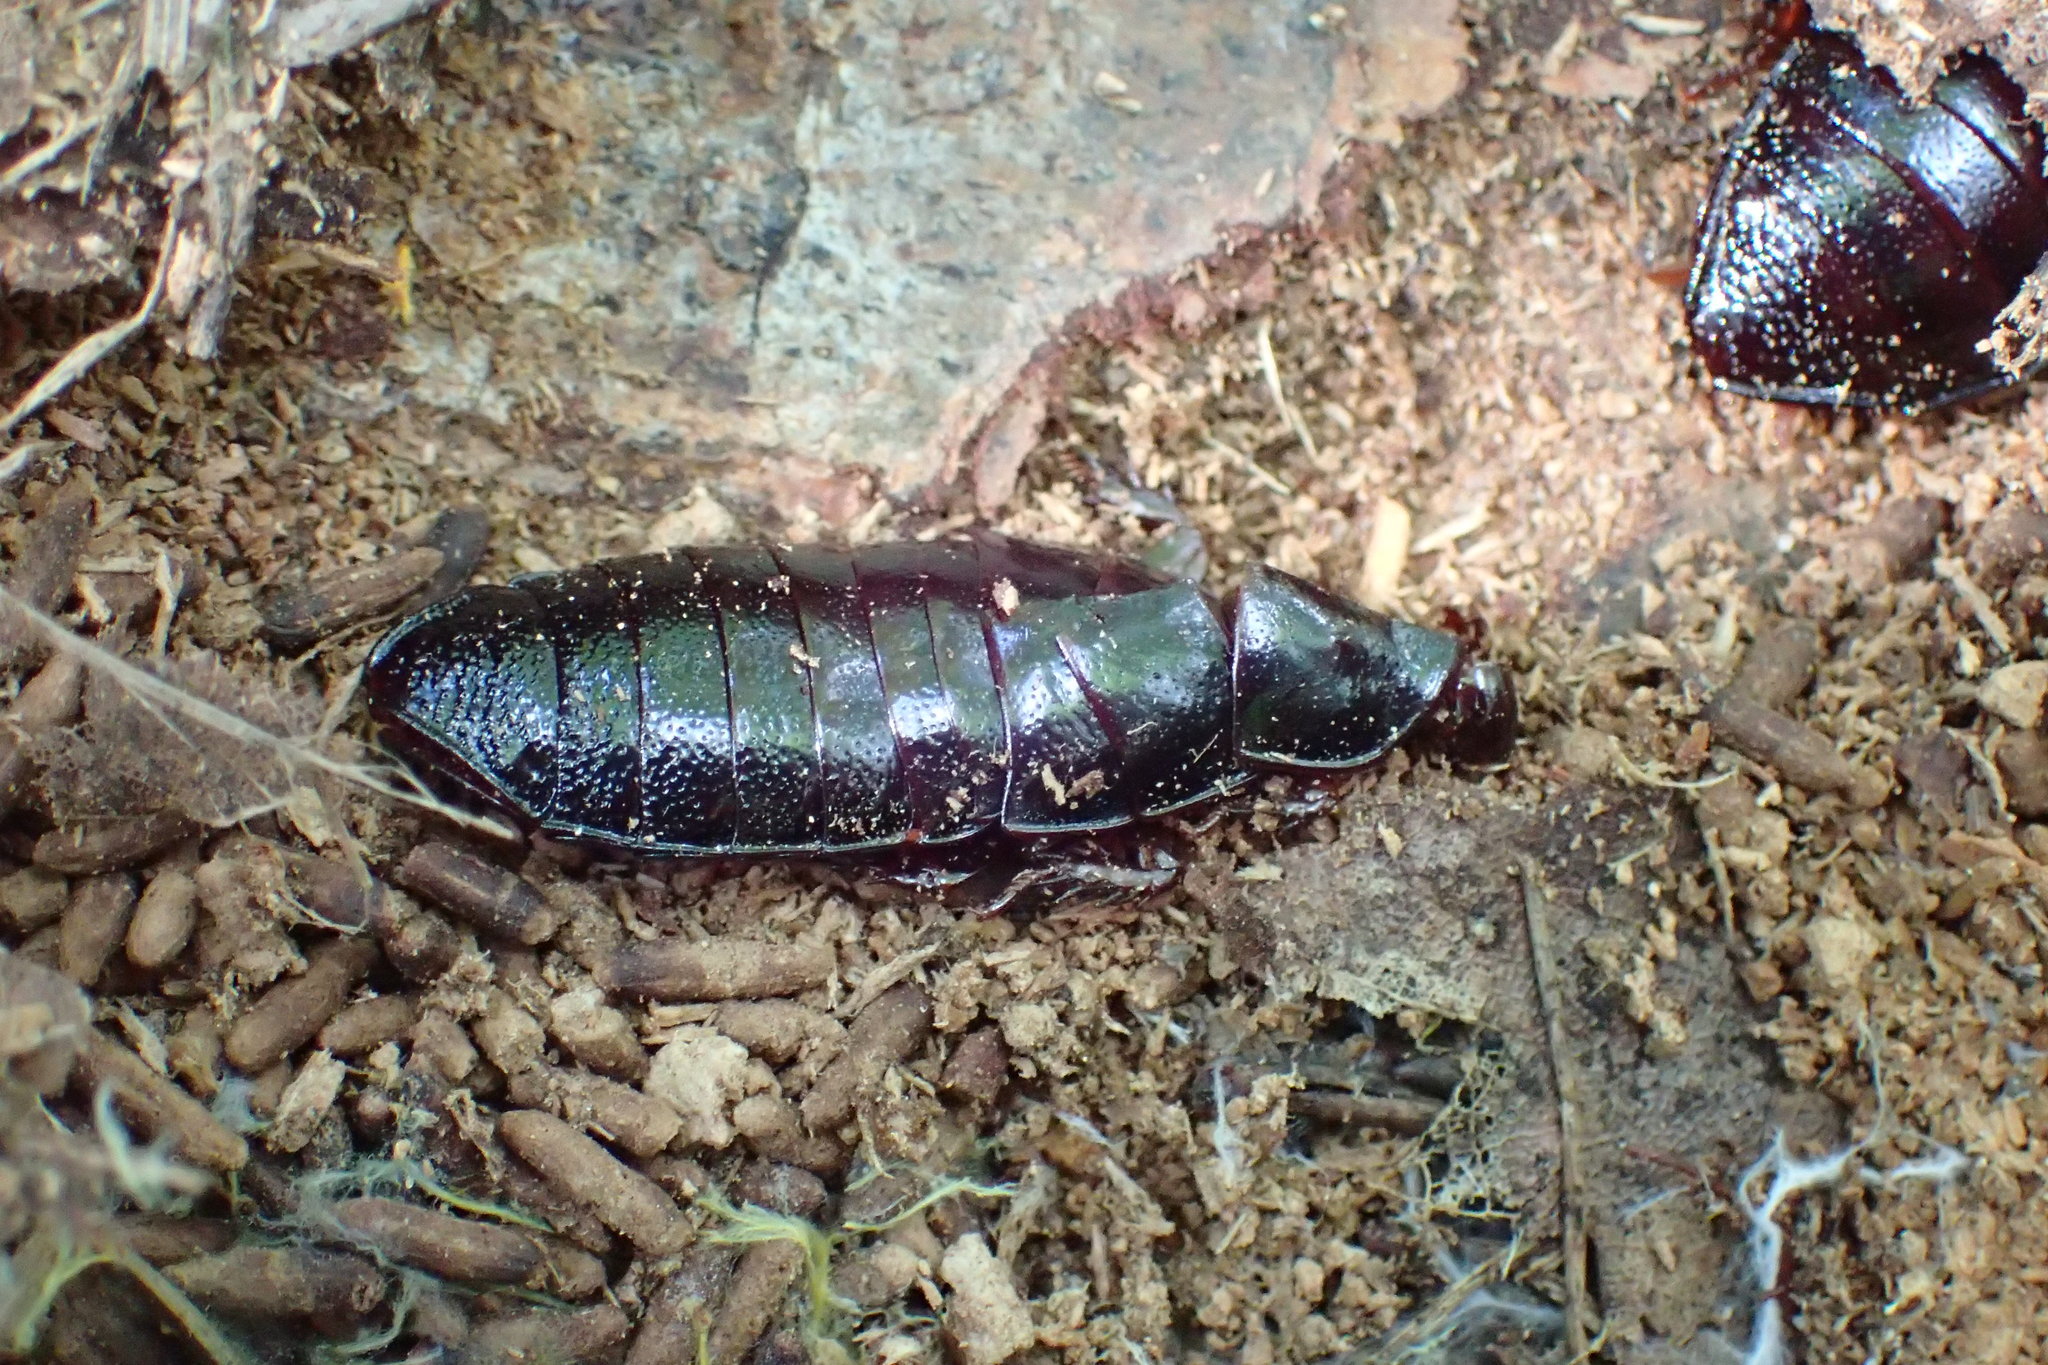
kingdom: Animalia
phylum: Arthropoda
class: Insecta
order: Blattodea
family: Cryptocercidae
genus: Cryptocercus
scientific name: Cryptocercus darwini
